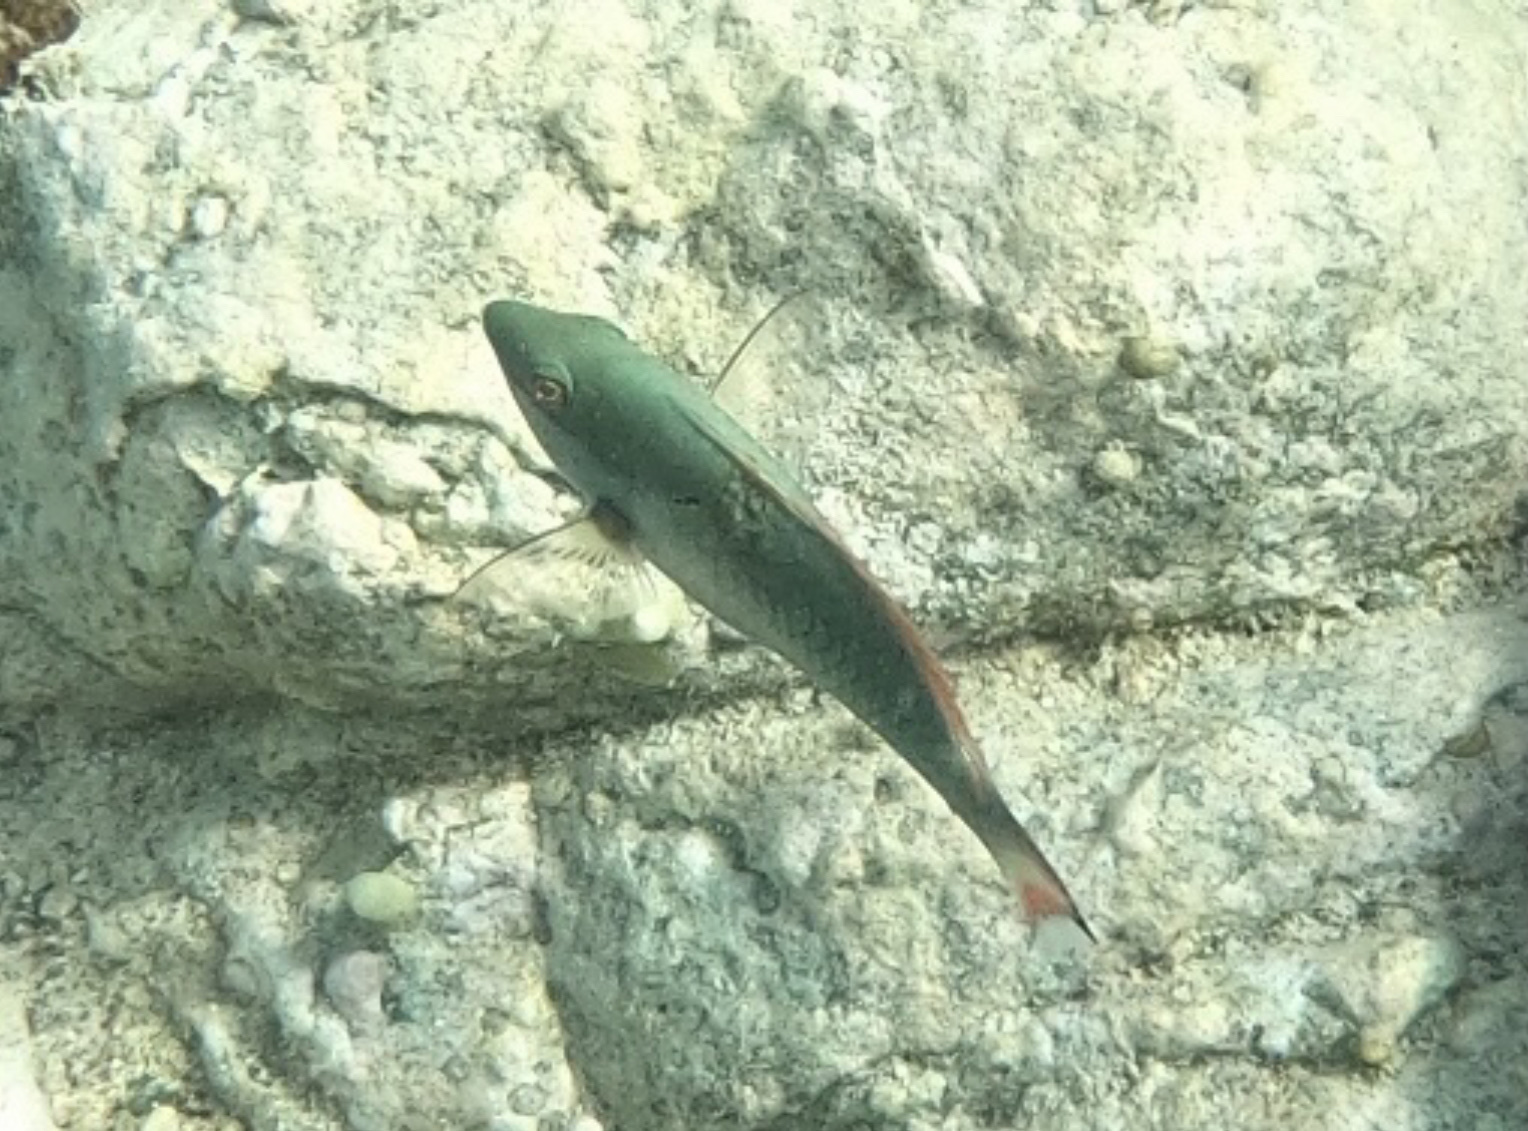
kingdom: Animalia
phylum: Chordata
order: Perciformes
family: Scaridae
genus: Sparisoma
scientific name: Sparisoma aurofrenatum
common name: Redband parrotfish
